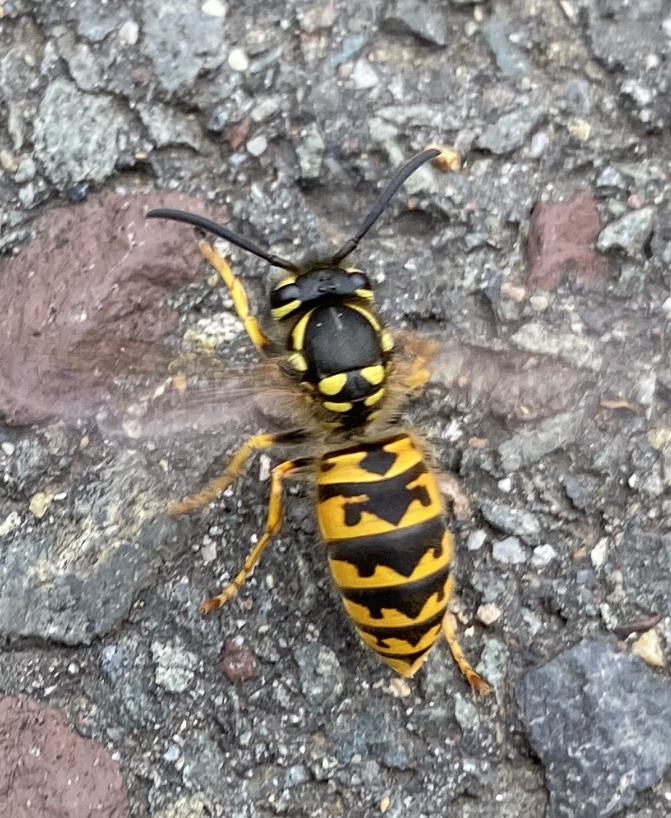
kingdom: Animalia
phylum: Arthropoda
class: Insecta
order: Hymenoptera
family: Vespidae
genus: Vespula
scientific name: Vespula germanica
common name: German wasp
